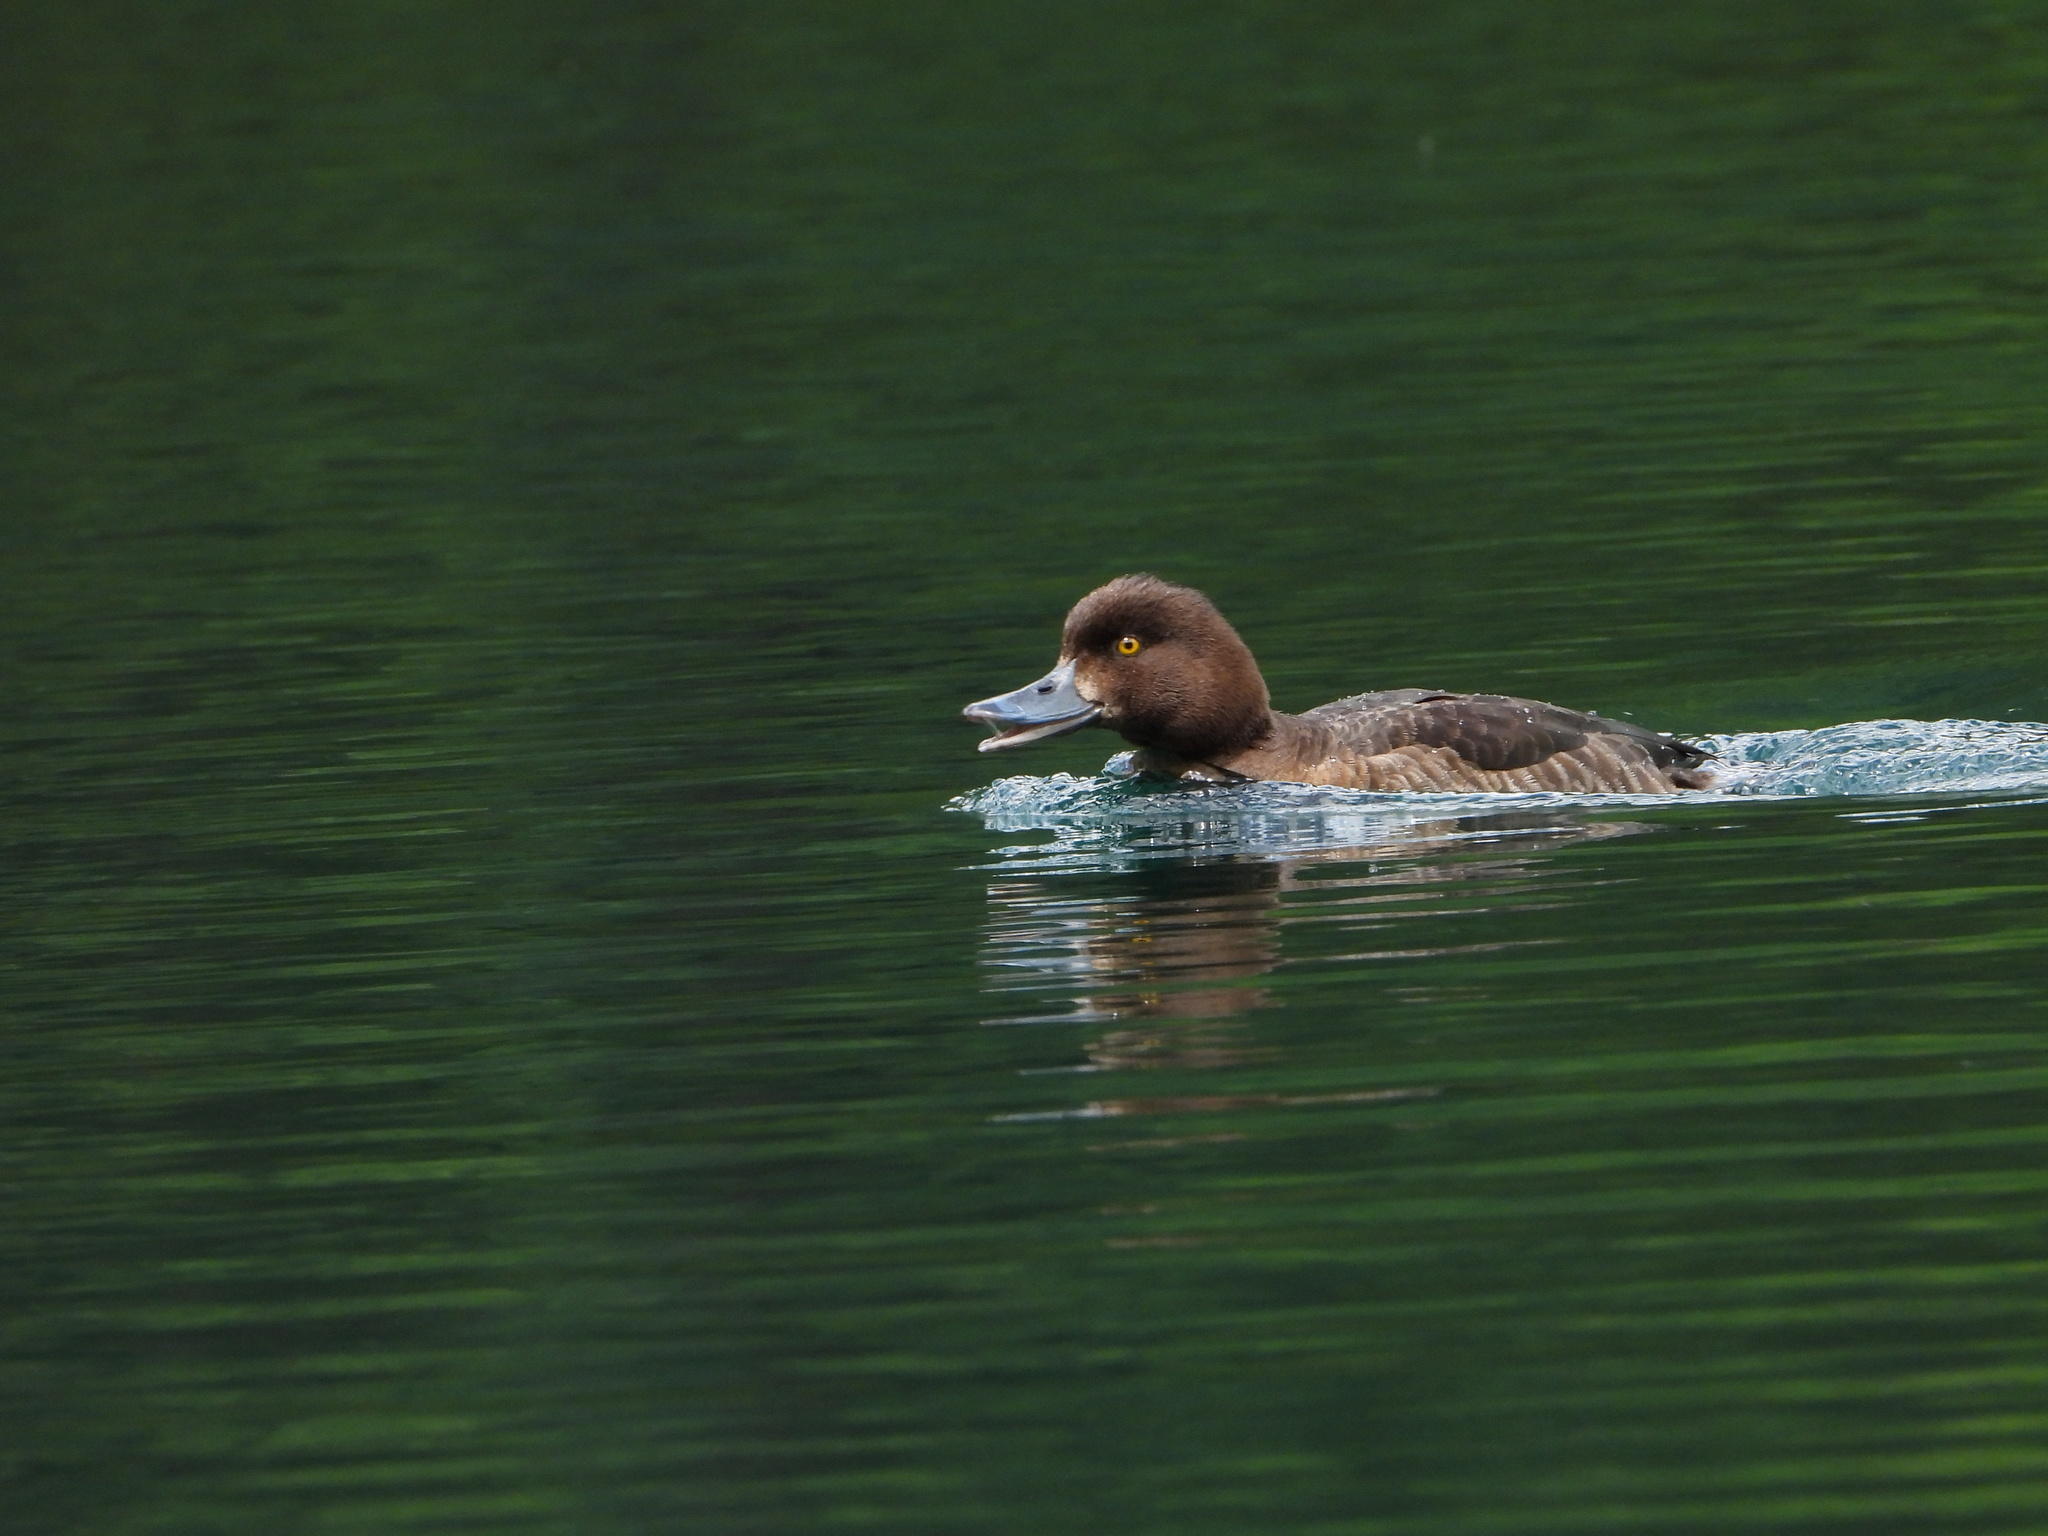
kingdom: Animalia
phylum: Chordata
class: Aves
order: Anseriformes
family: Anatidae
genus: Aythya
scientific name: Aythya fuligula
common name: Tufted duck
